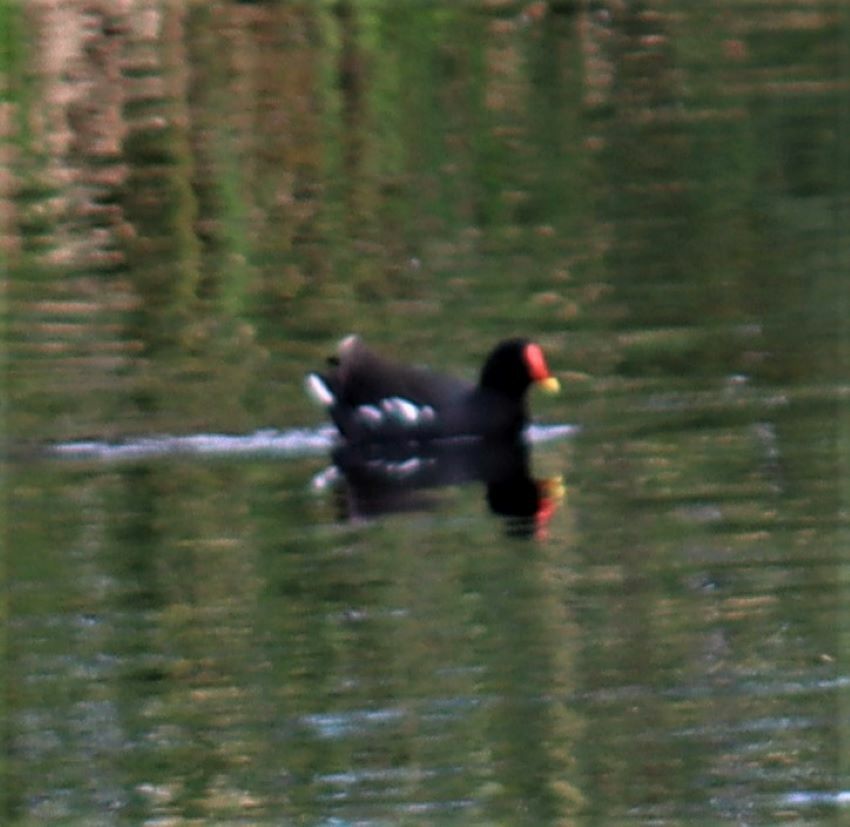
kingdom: Animalia
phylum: Chordata
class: Aves
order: Gruiformes
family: Rallidae
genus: Gallinula
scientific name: Gallinula chloropus
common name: Common moorhen
